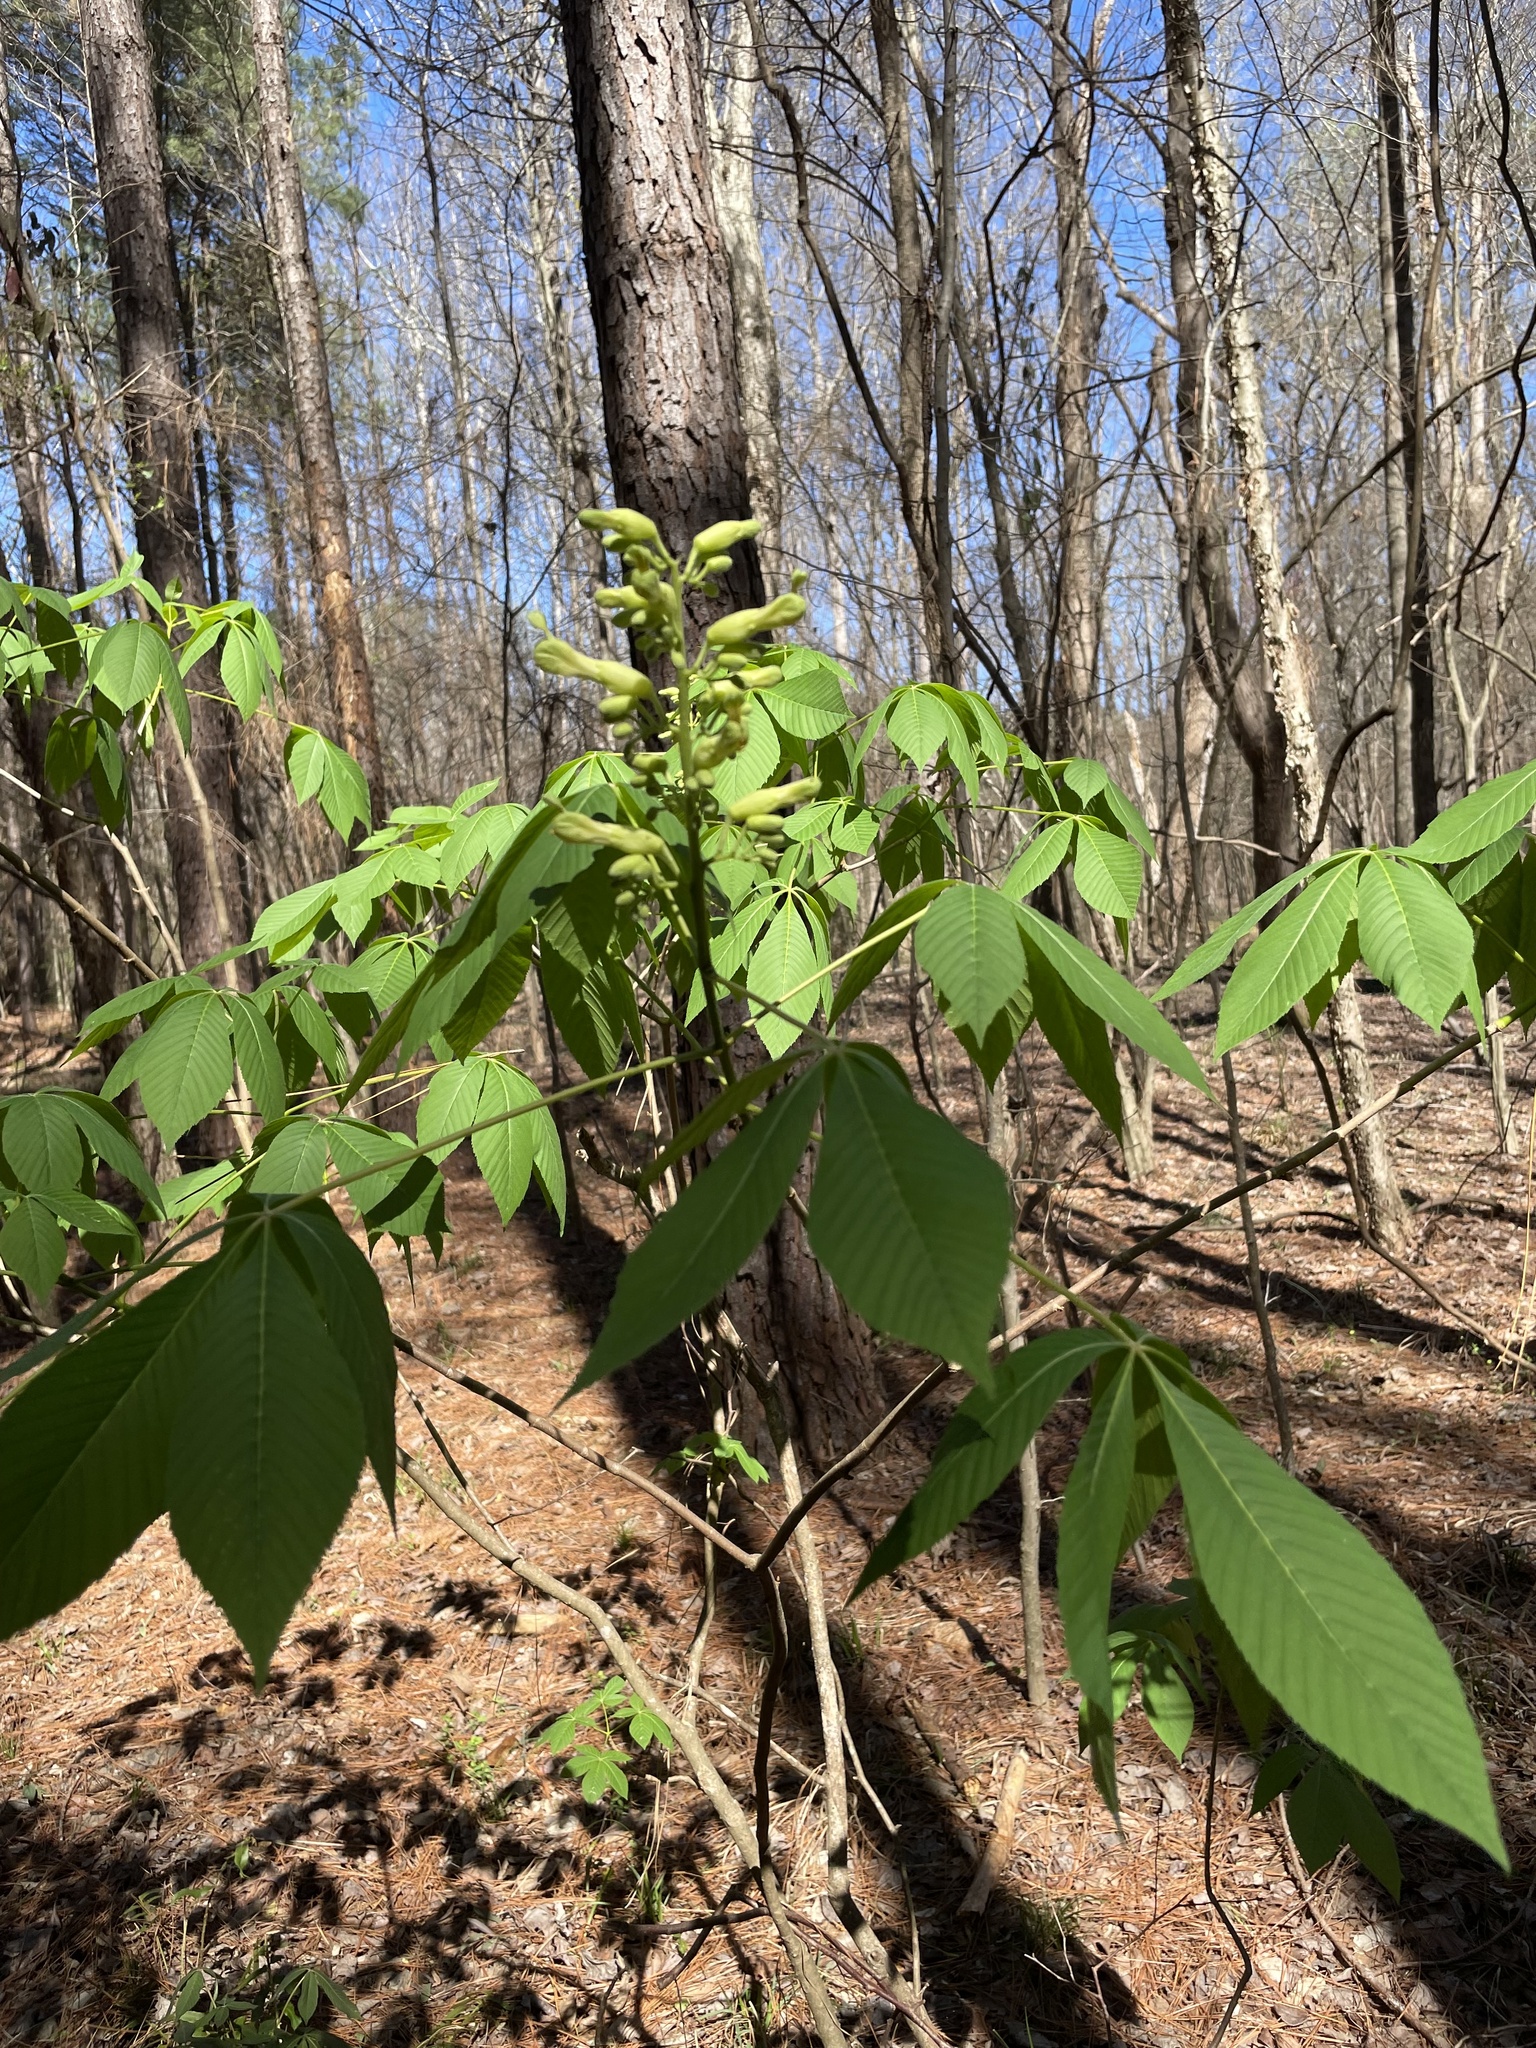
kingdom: Plantae
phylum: Tracheophyta
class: Magnoliopsida
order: Sapindales
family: Sapindaceae
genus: Aesculus
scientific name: Aesculus sylvatica
